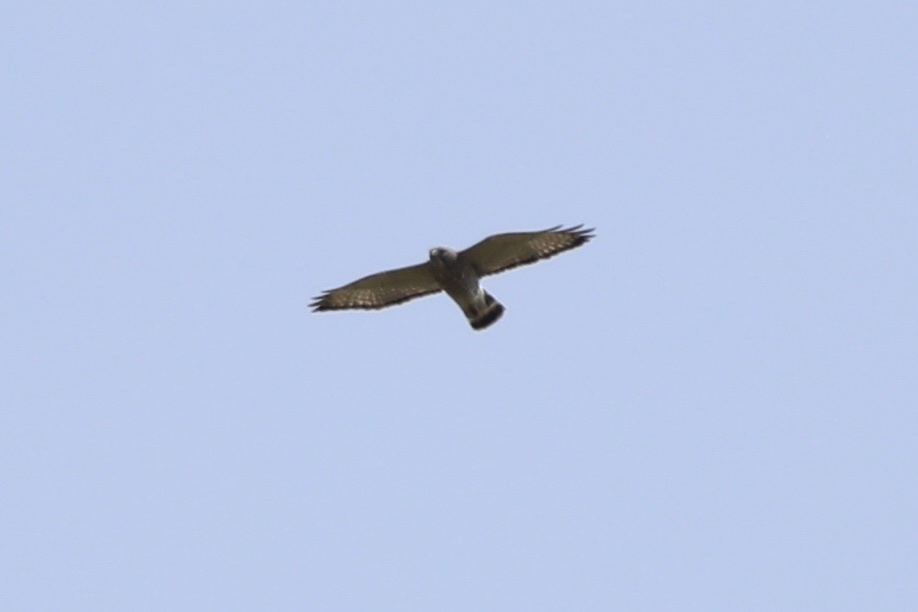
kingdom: Animalia
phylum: Chordata
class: Aves
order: Accipitriformes
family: Accipitridae
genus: Buteo
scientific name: Buteo platypterus
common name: Broad-winged hawk
